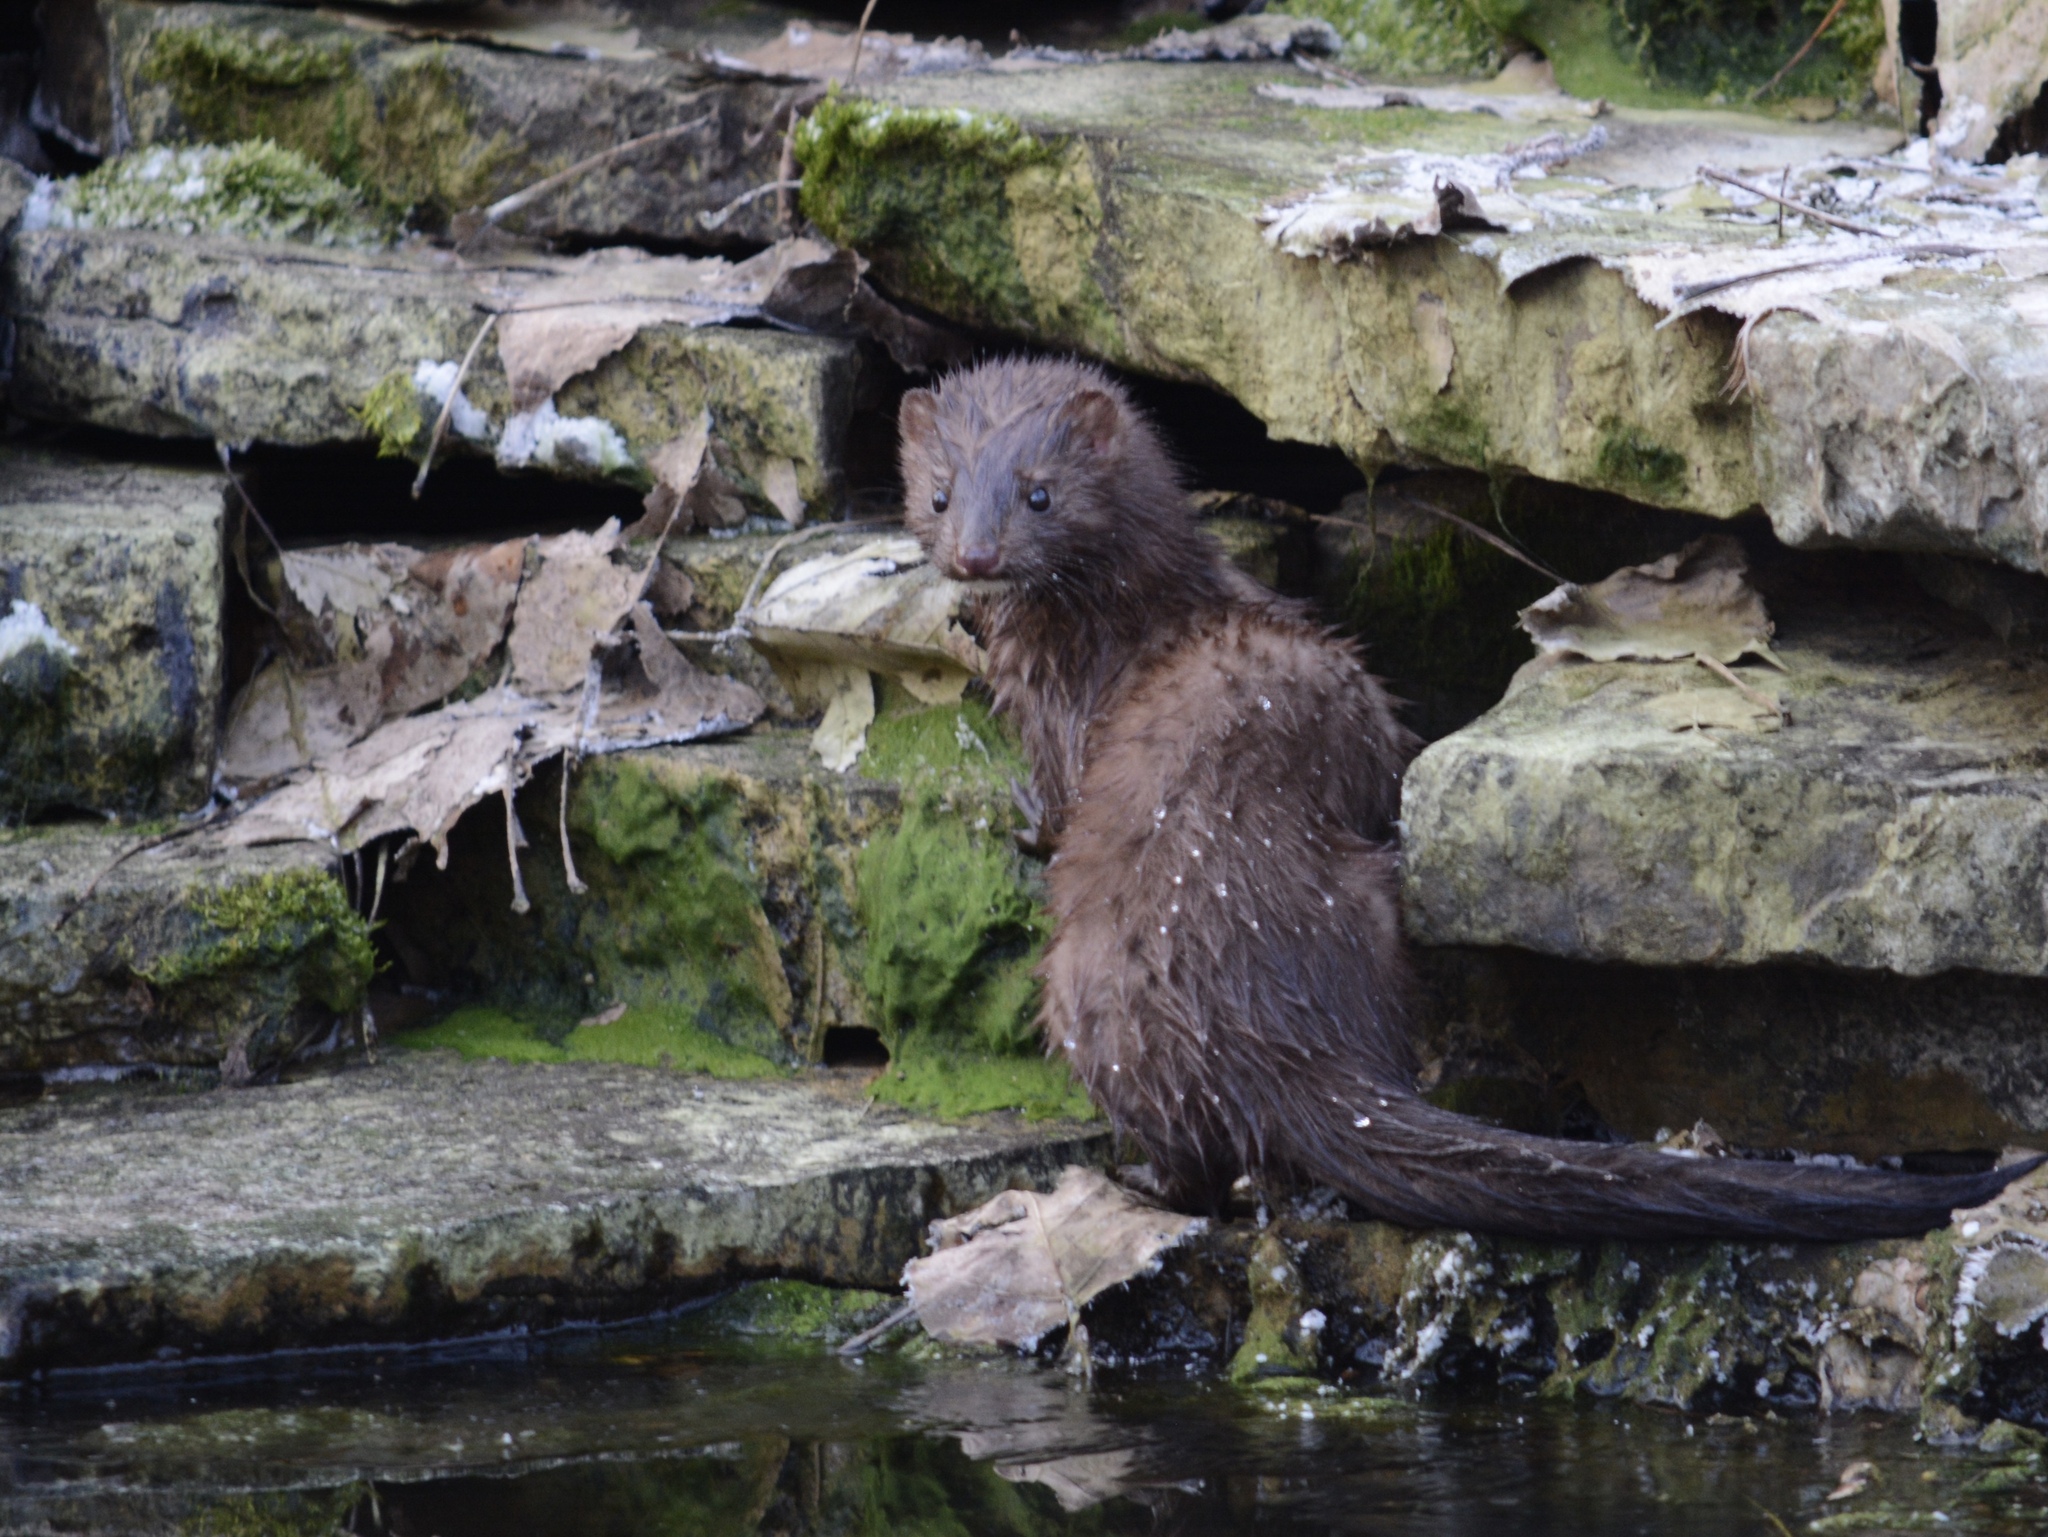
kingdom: Animalia
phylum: Chordata
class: Mammalia
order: Carnivora
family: Mustelidae
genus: Mustela
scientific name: Mustela
